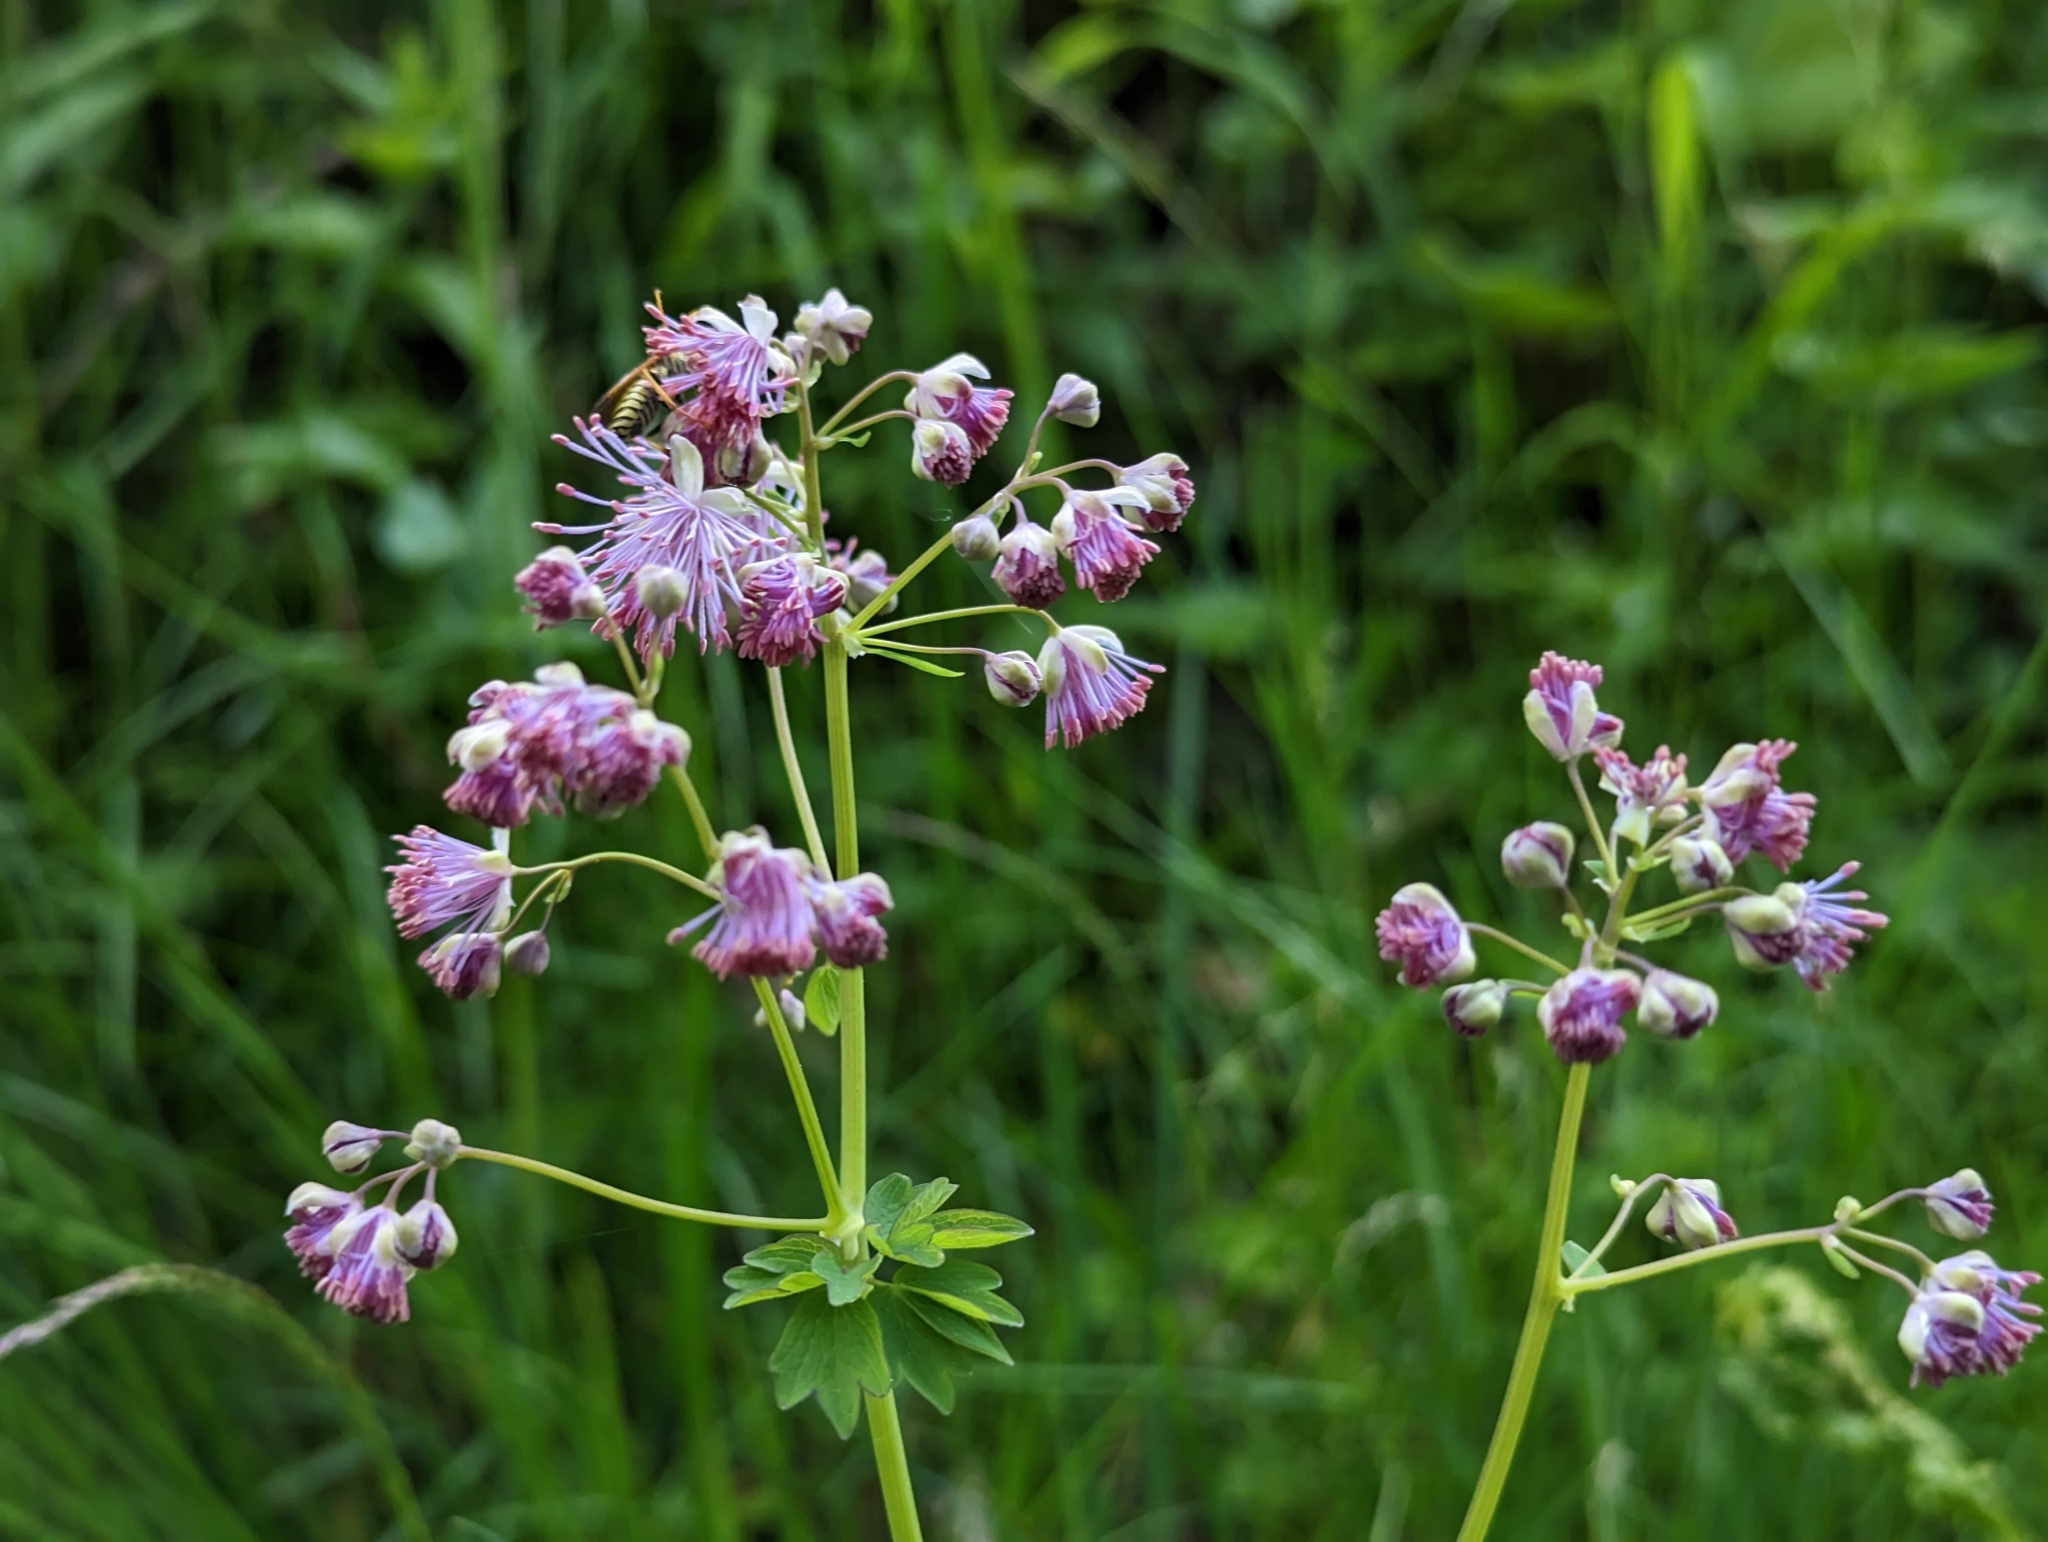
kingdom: Plantae
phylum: Tracheophyta
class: Magnoliopsida
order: Ranunculales
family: Ranunculaceae
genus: Thalictrum
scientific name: Thalictrum aquilegiifolium
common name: French meadow-rue
